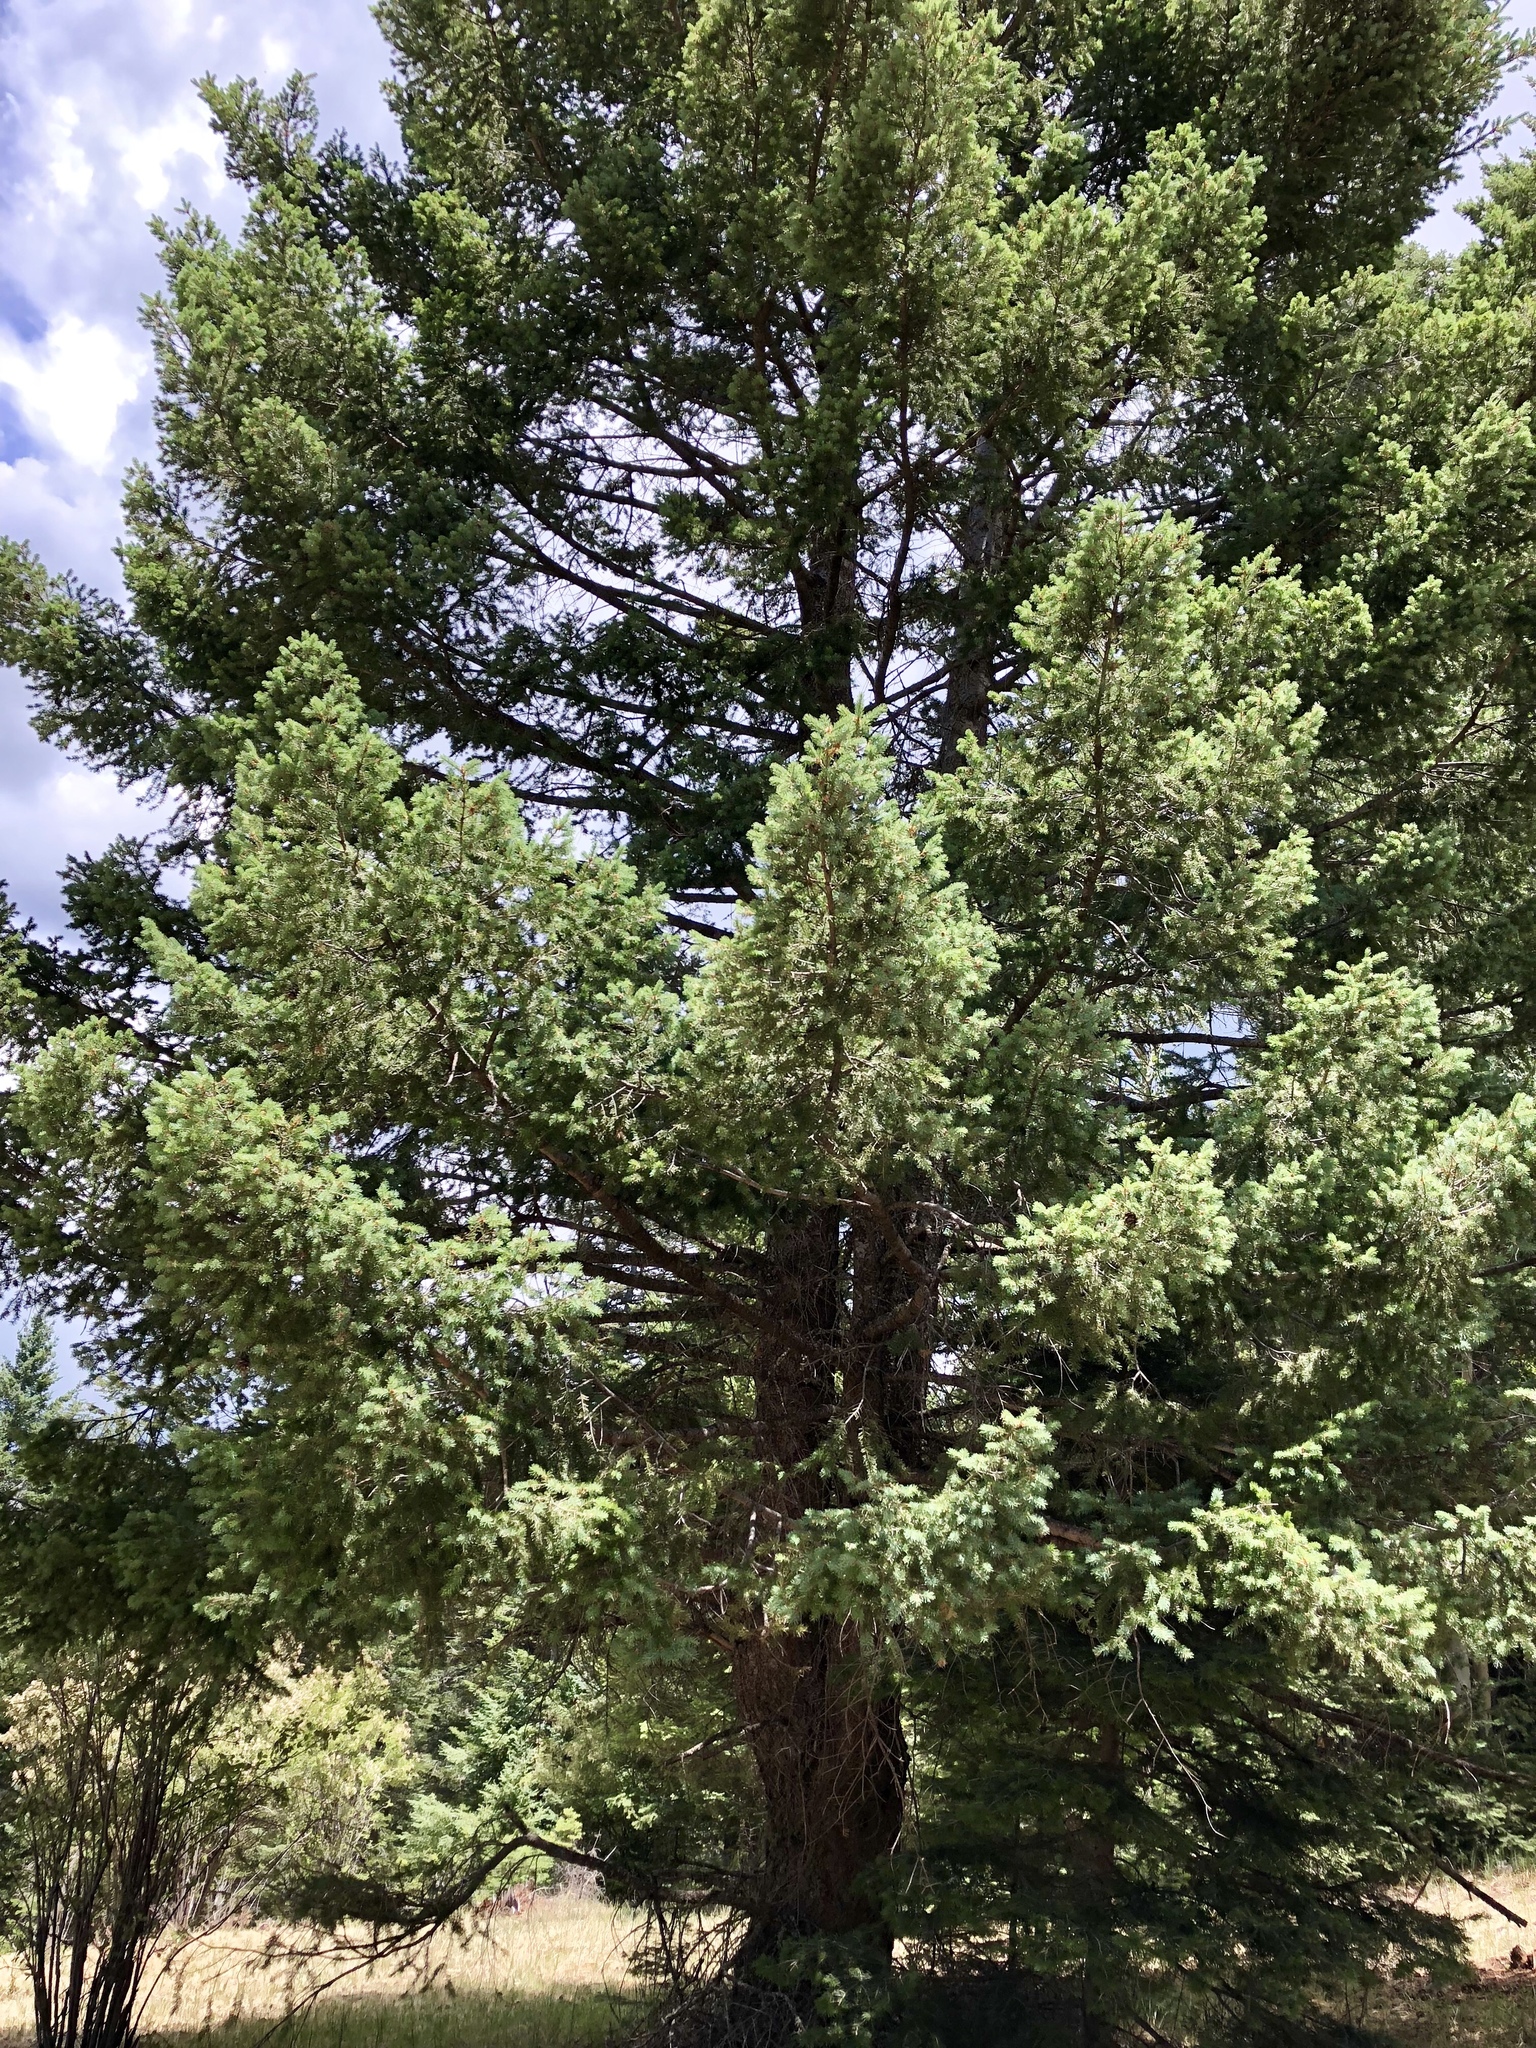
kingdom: Plantae
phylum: Tracheophyta
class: Pinopsida
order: Pinales
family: Pinaceae
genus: Pseudotsuga
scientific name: Pseudotsuga menziesii
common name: Douglas fir
